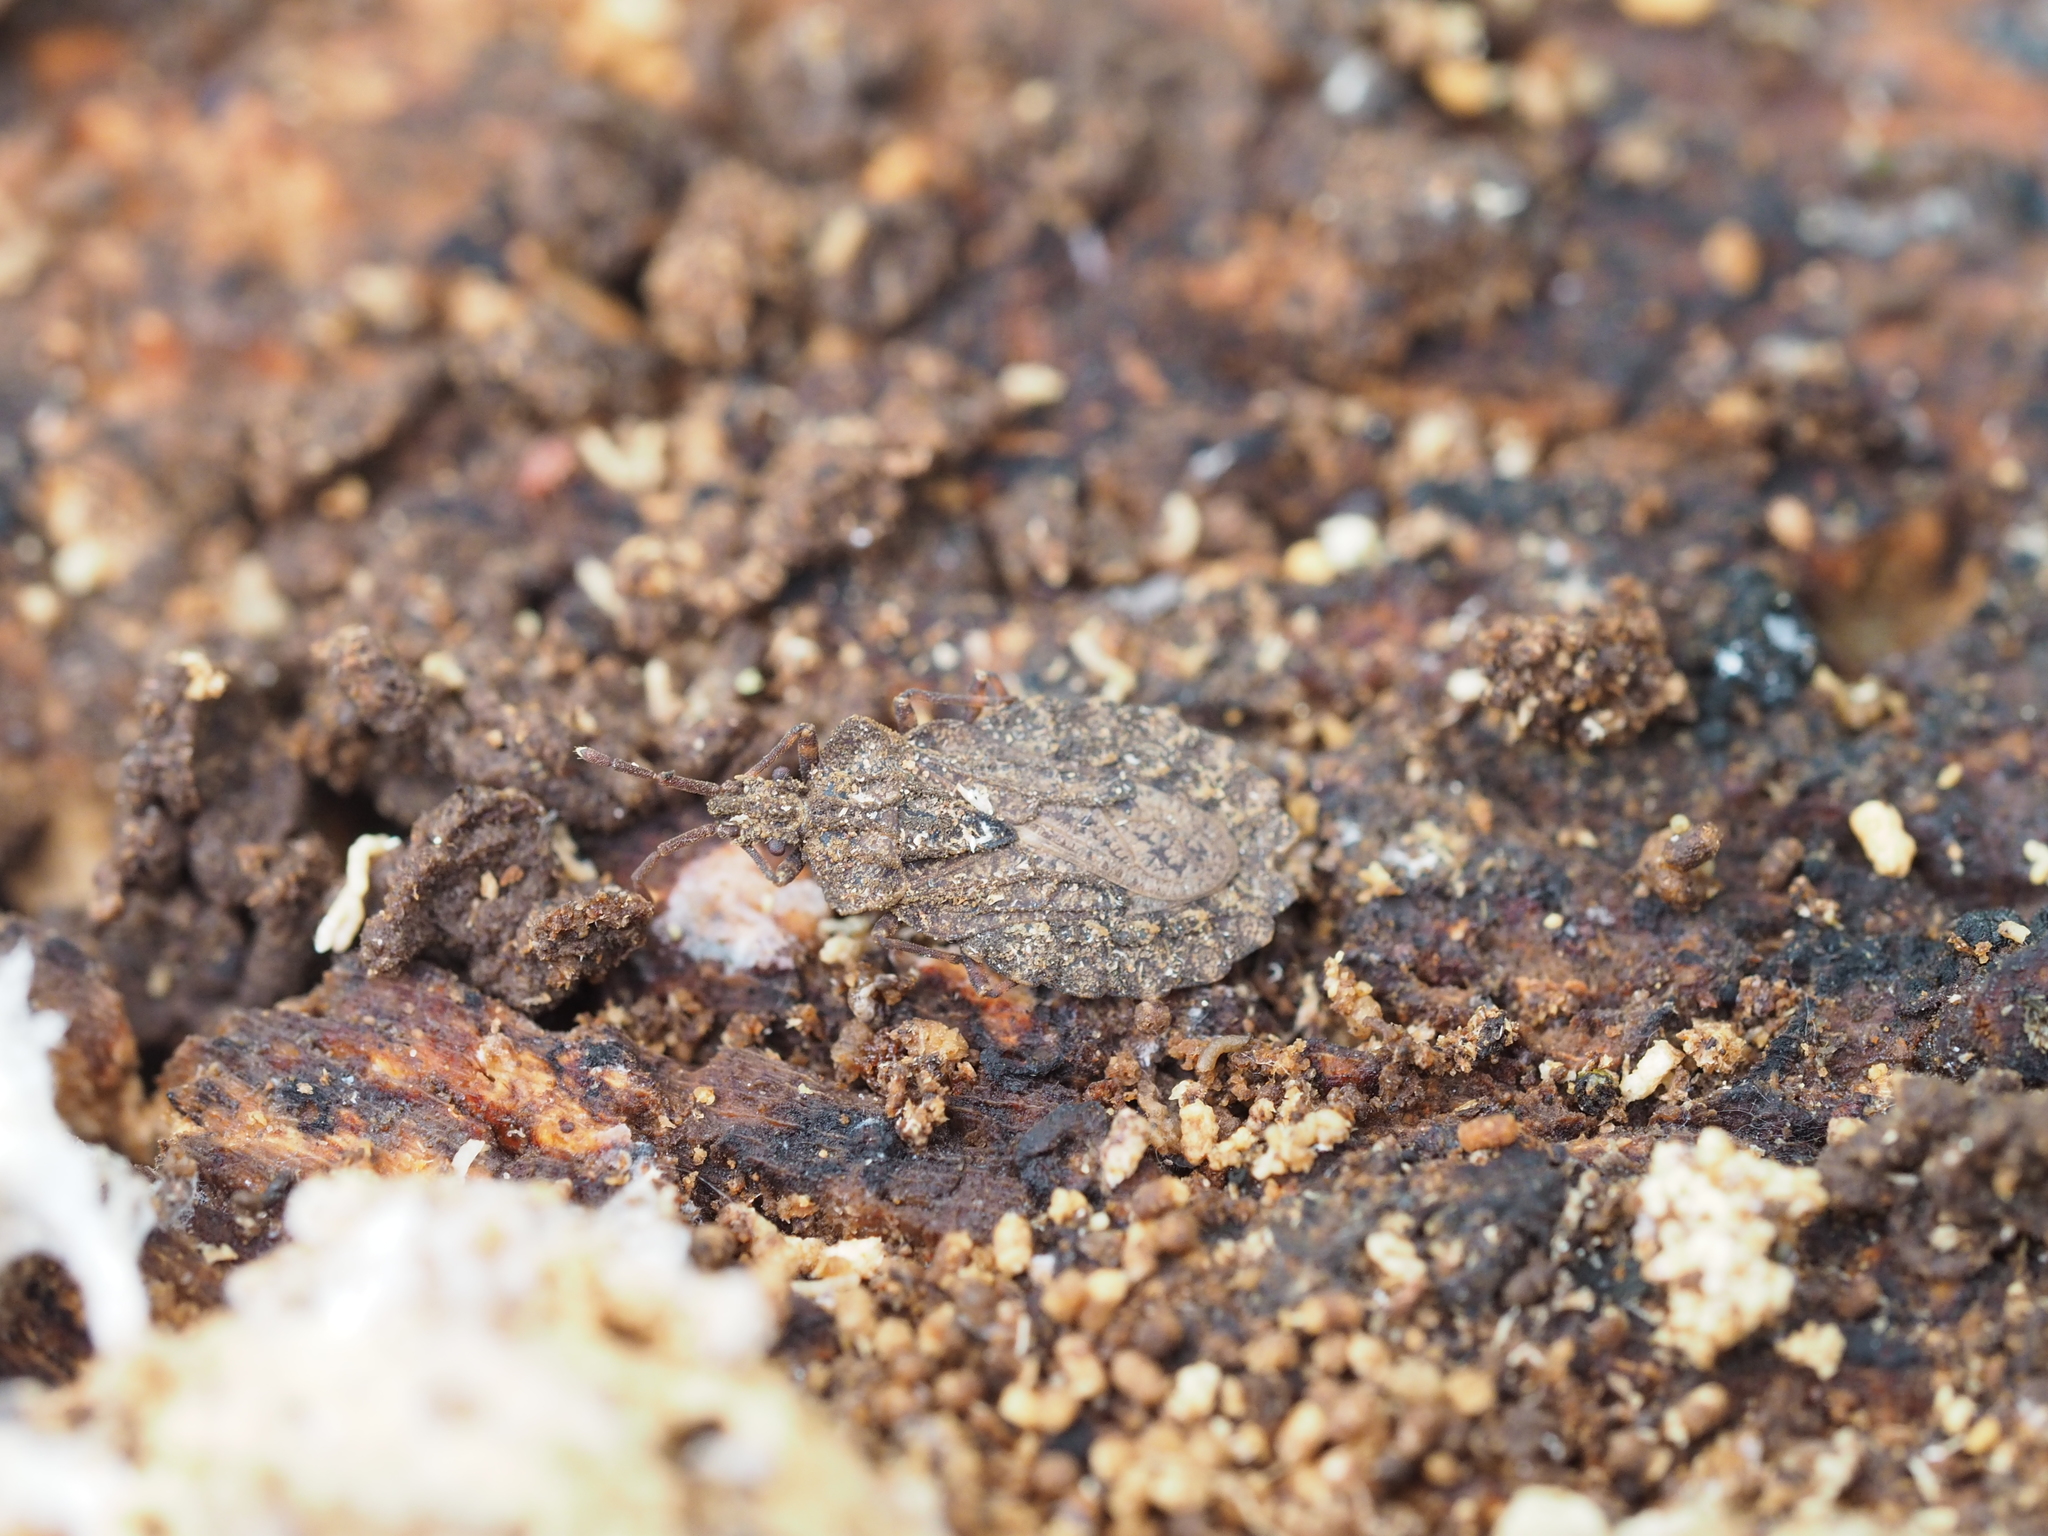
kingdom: Animalia
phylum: Arthropoda
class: Insecta
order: Hemiptera
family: Aradidae
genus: Aradus
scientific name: Aradus conspicuus
